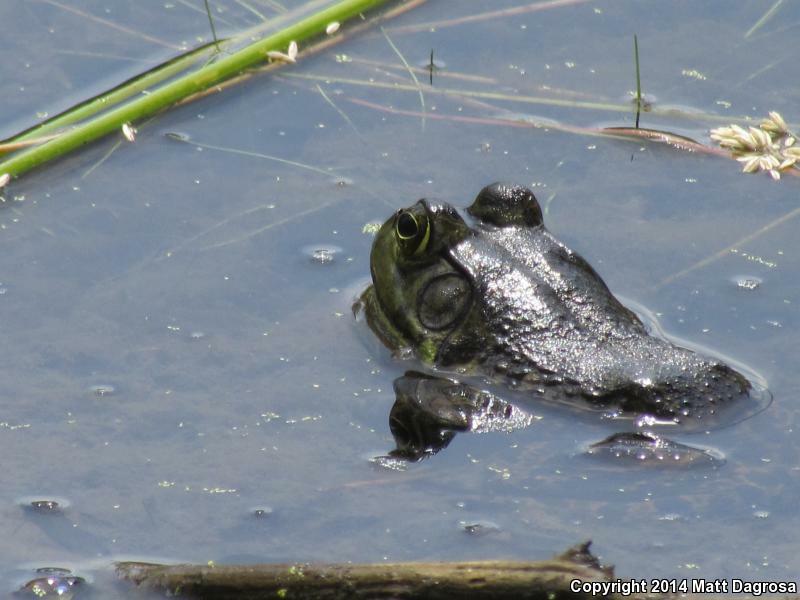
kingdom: Animalia
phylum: Chordata
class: Amphibia
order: Anura
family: Ranidae
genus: Lithobates
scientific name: Lithobates catesbeianus
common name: American bullfrog
